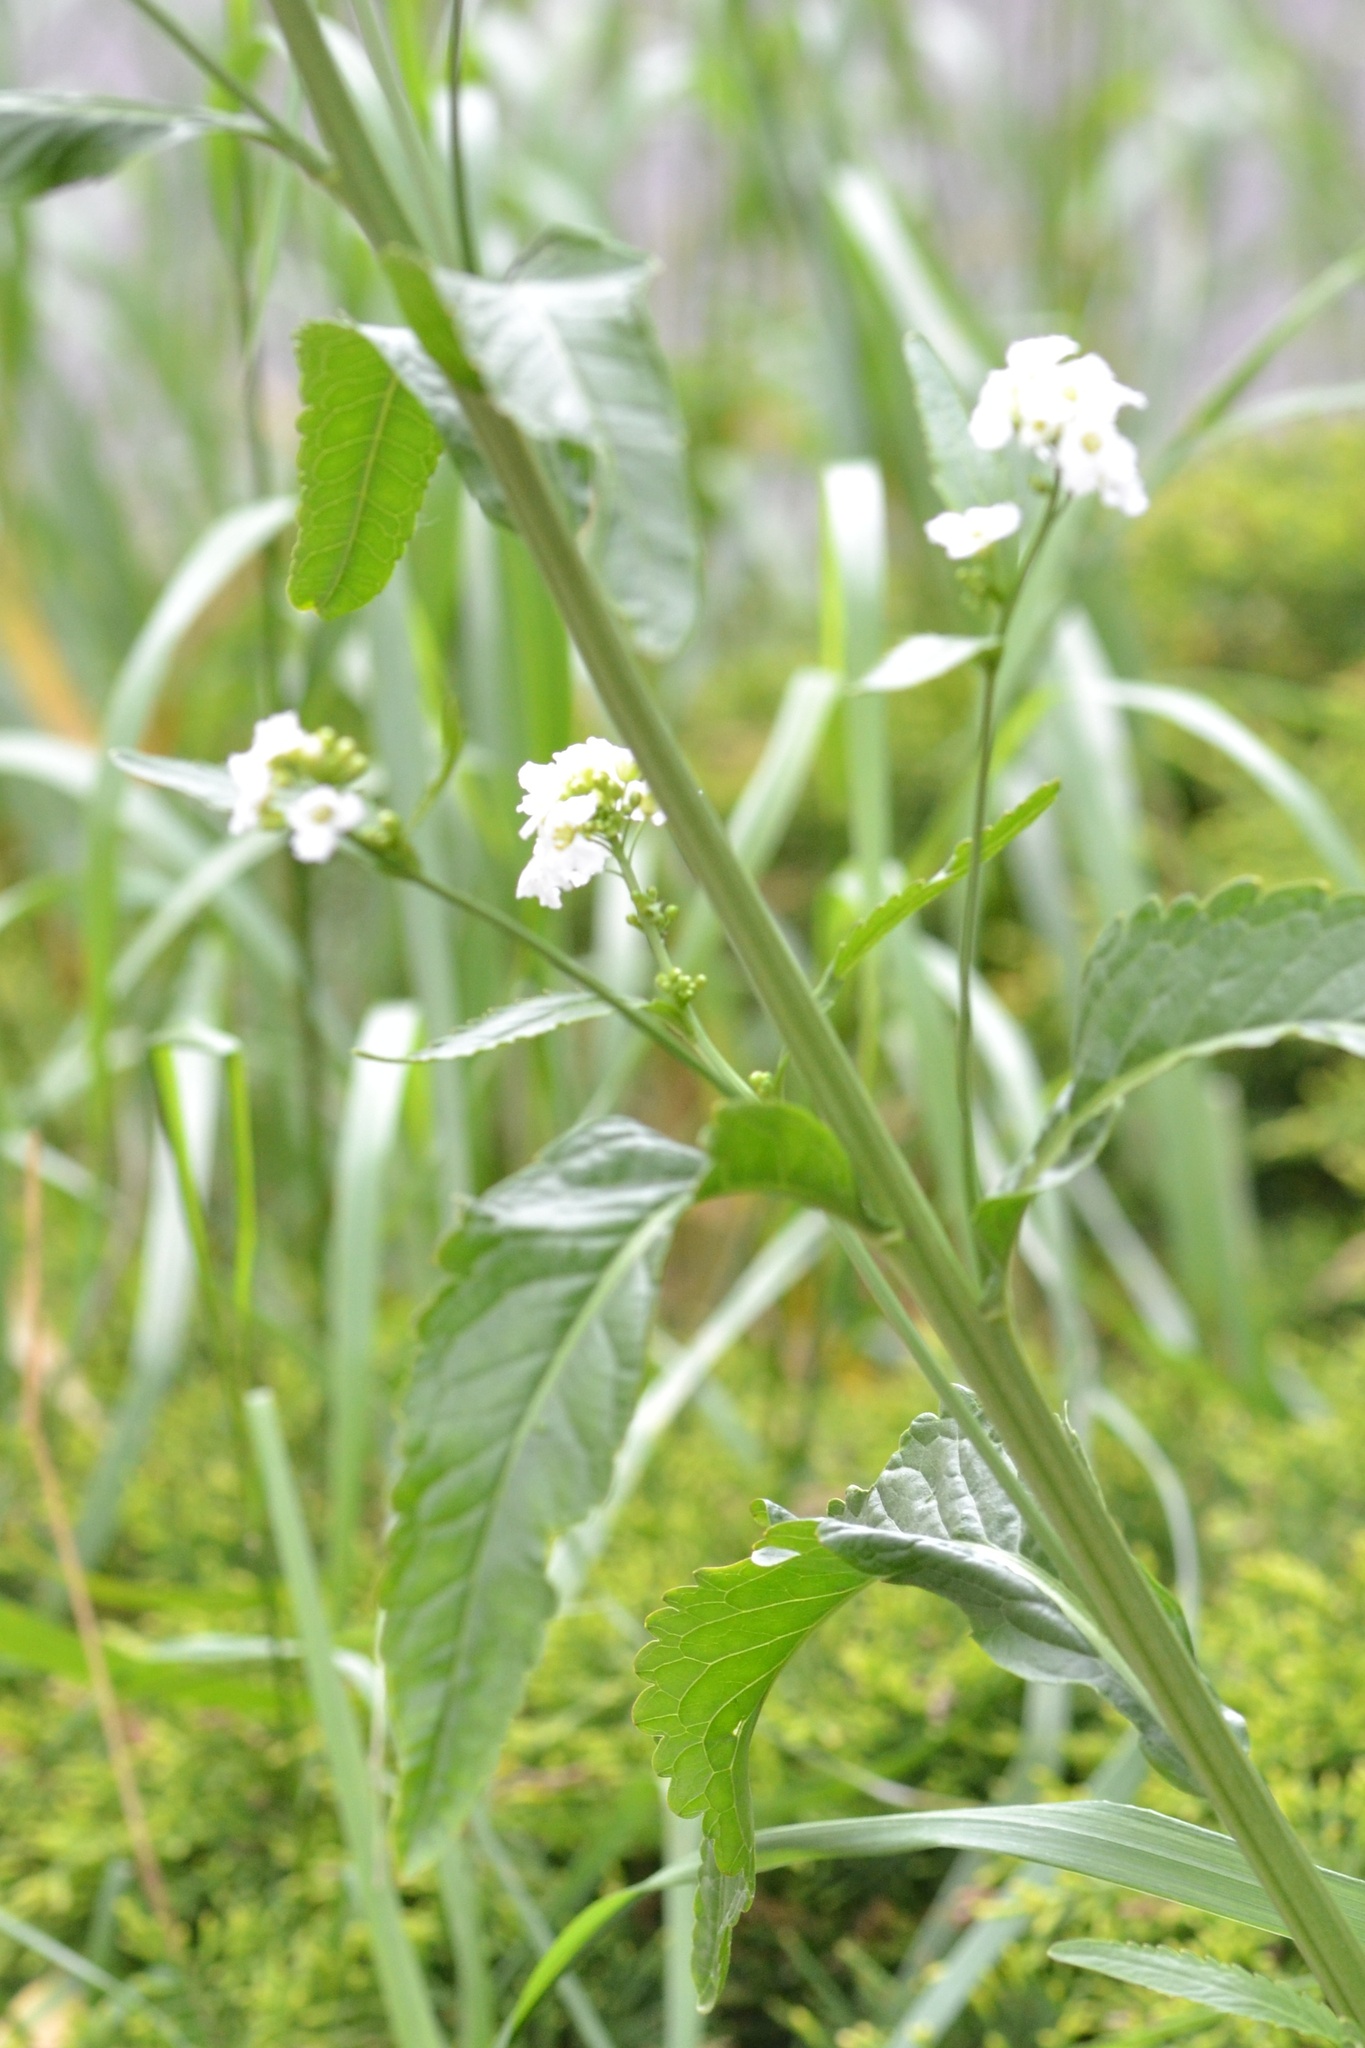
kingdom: Plantae
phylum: Tracheophyta
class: Magnoliopsida
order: Brassicales
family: Brassicaceae
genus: Armoracia
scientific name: Armoracia rusticana
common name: Horseradish
